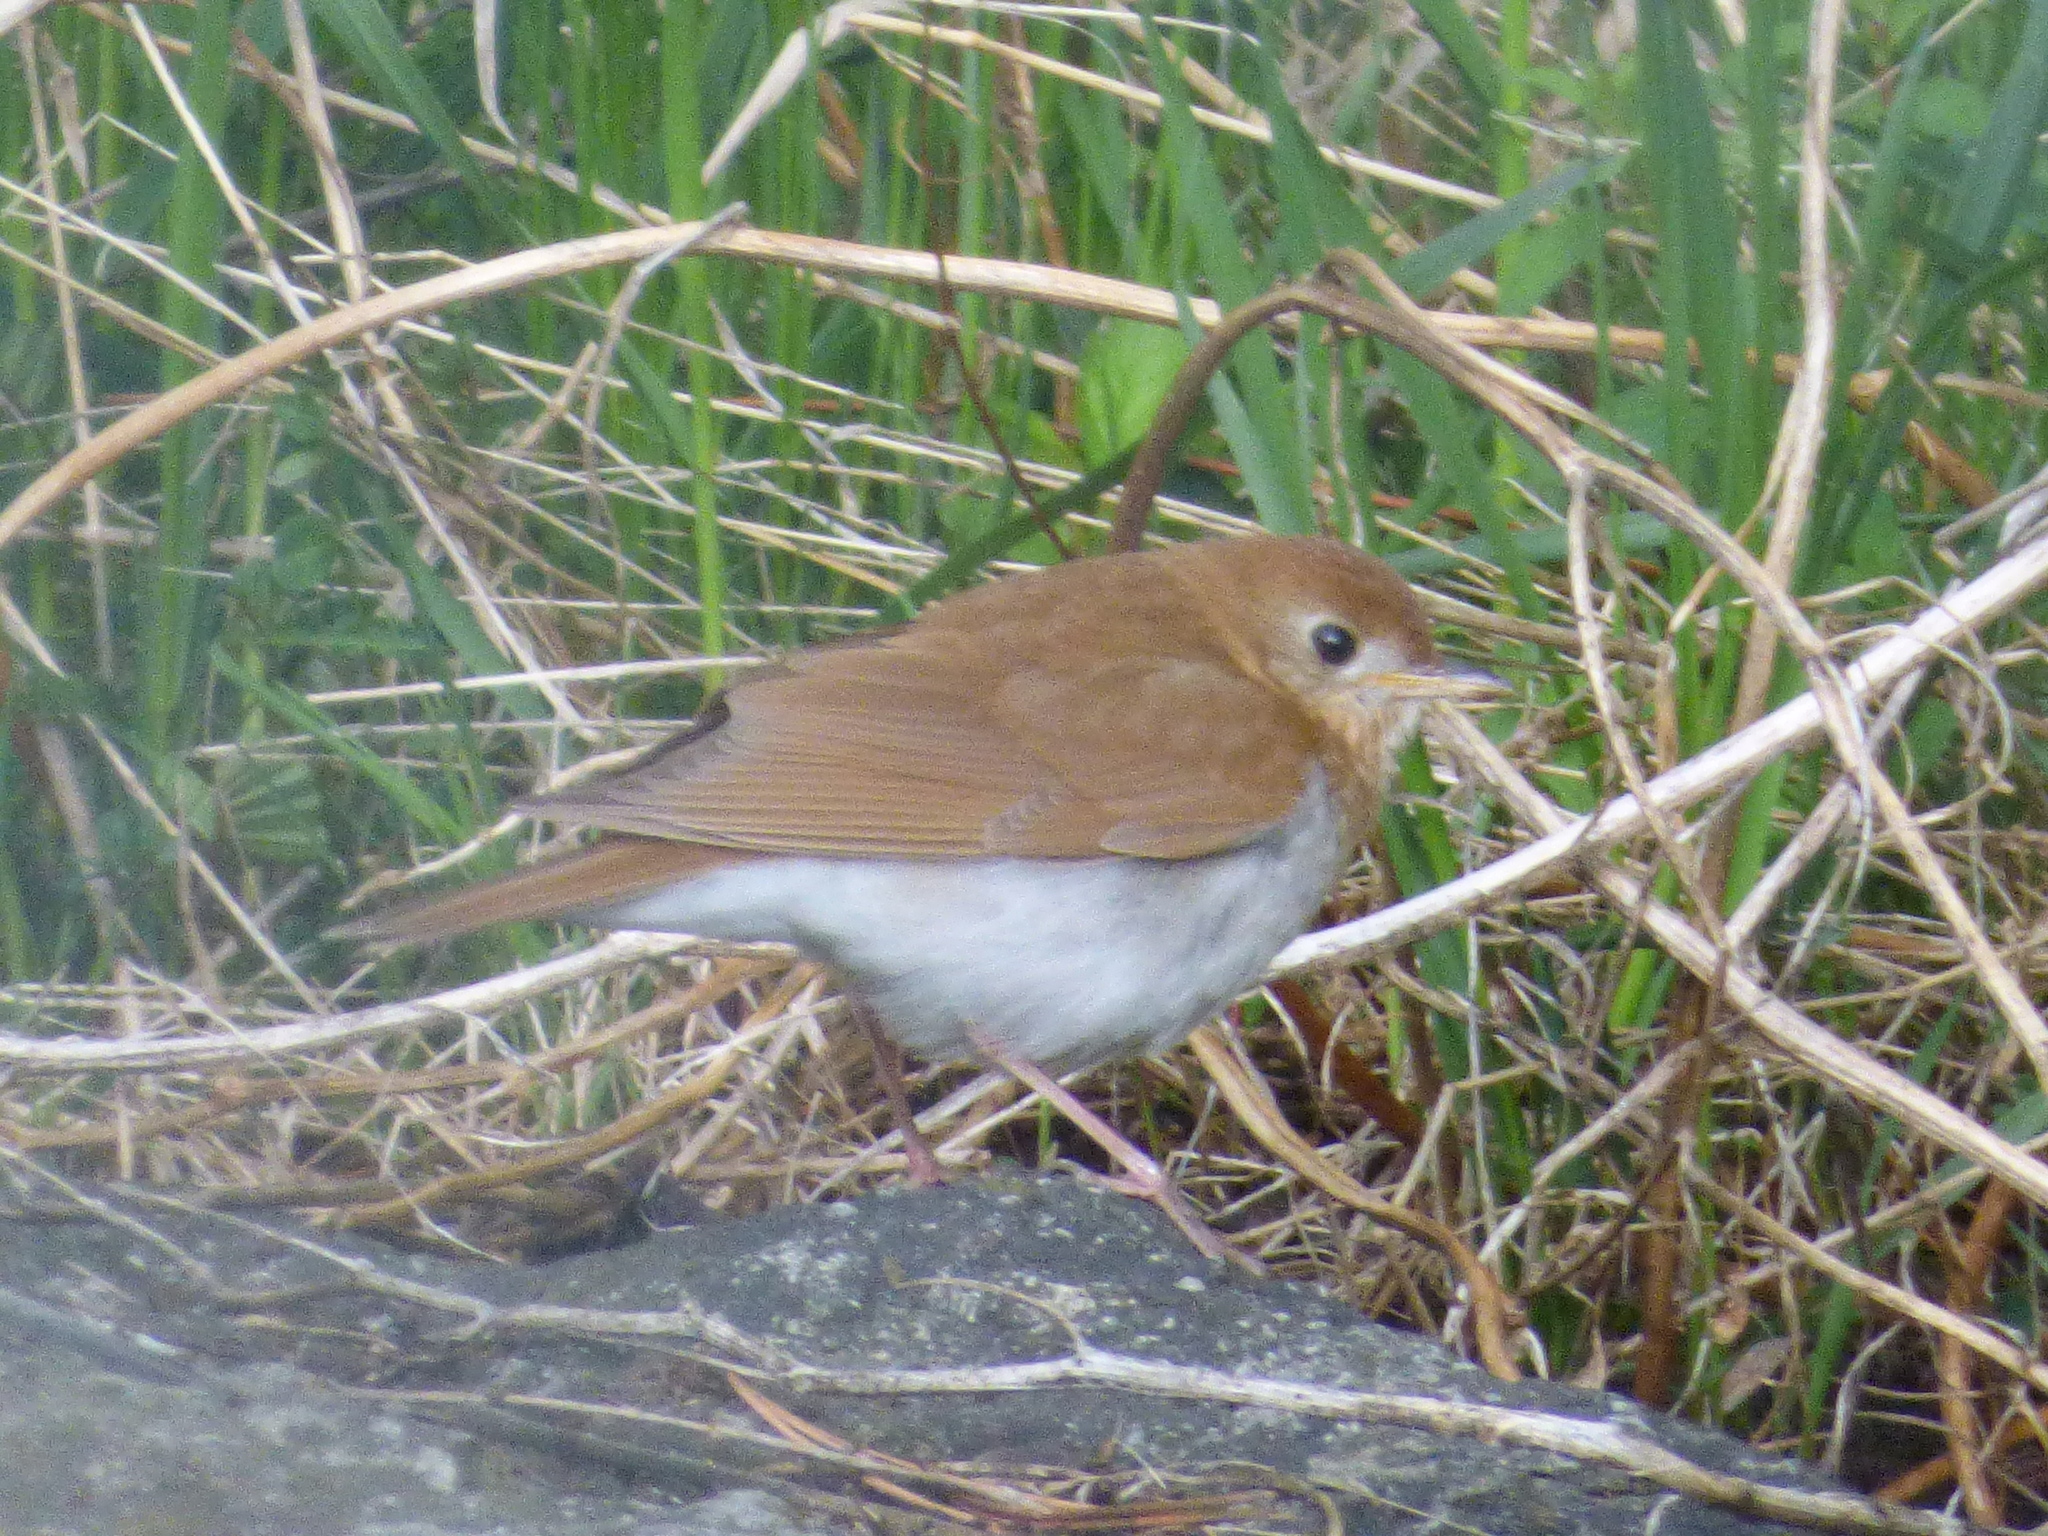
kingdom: Animalia
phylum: Chordata
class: Aves
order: Passeriformes
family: Turdidae
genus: Catharus
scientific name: Catharus fuscescens
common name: Veery
